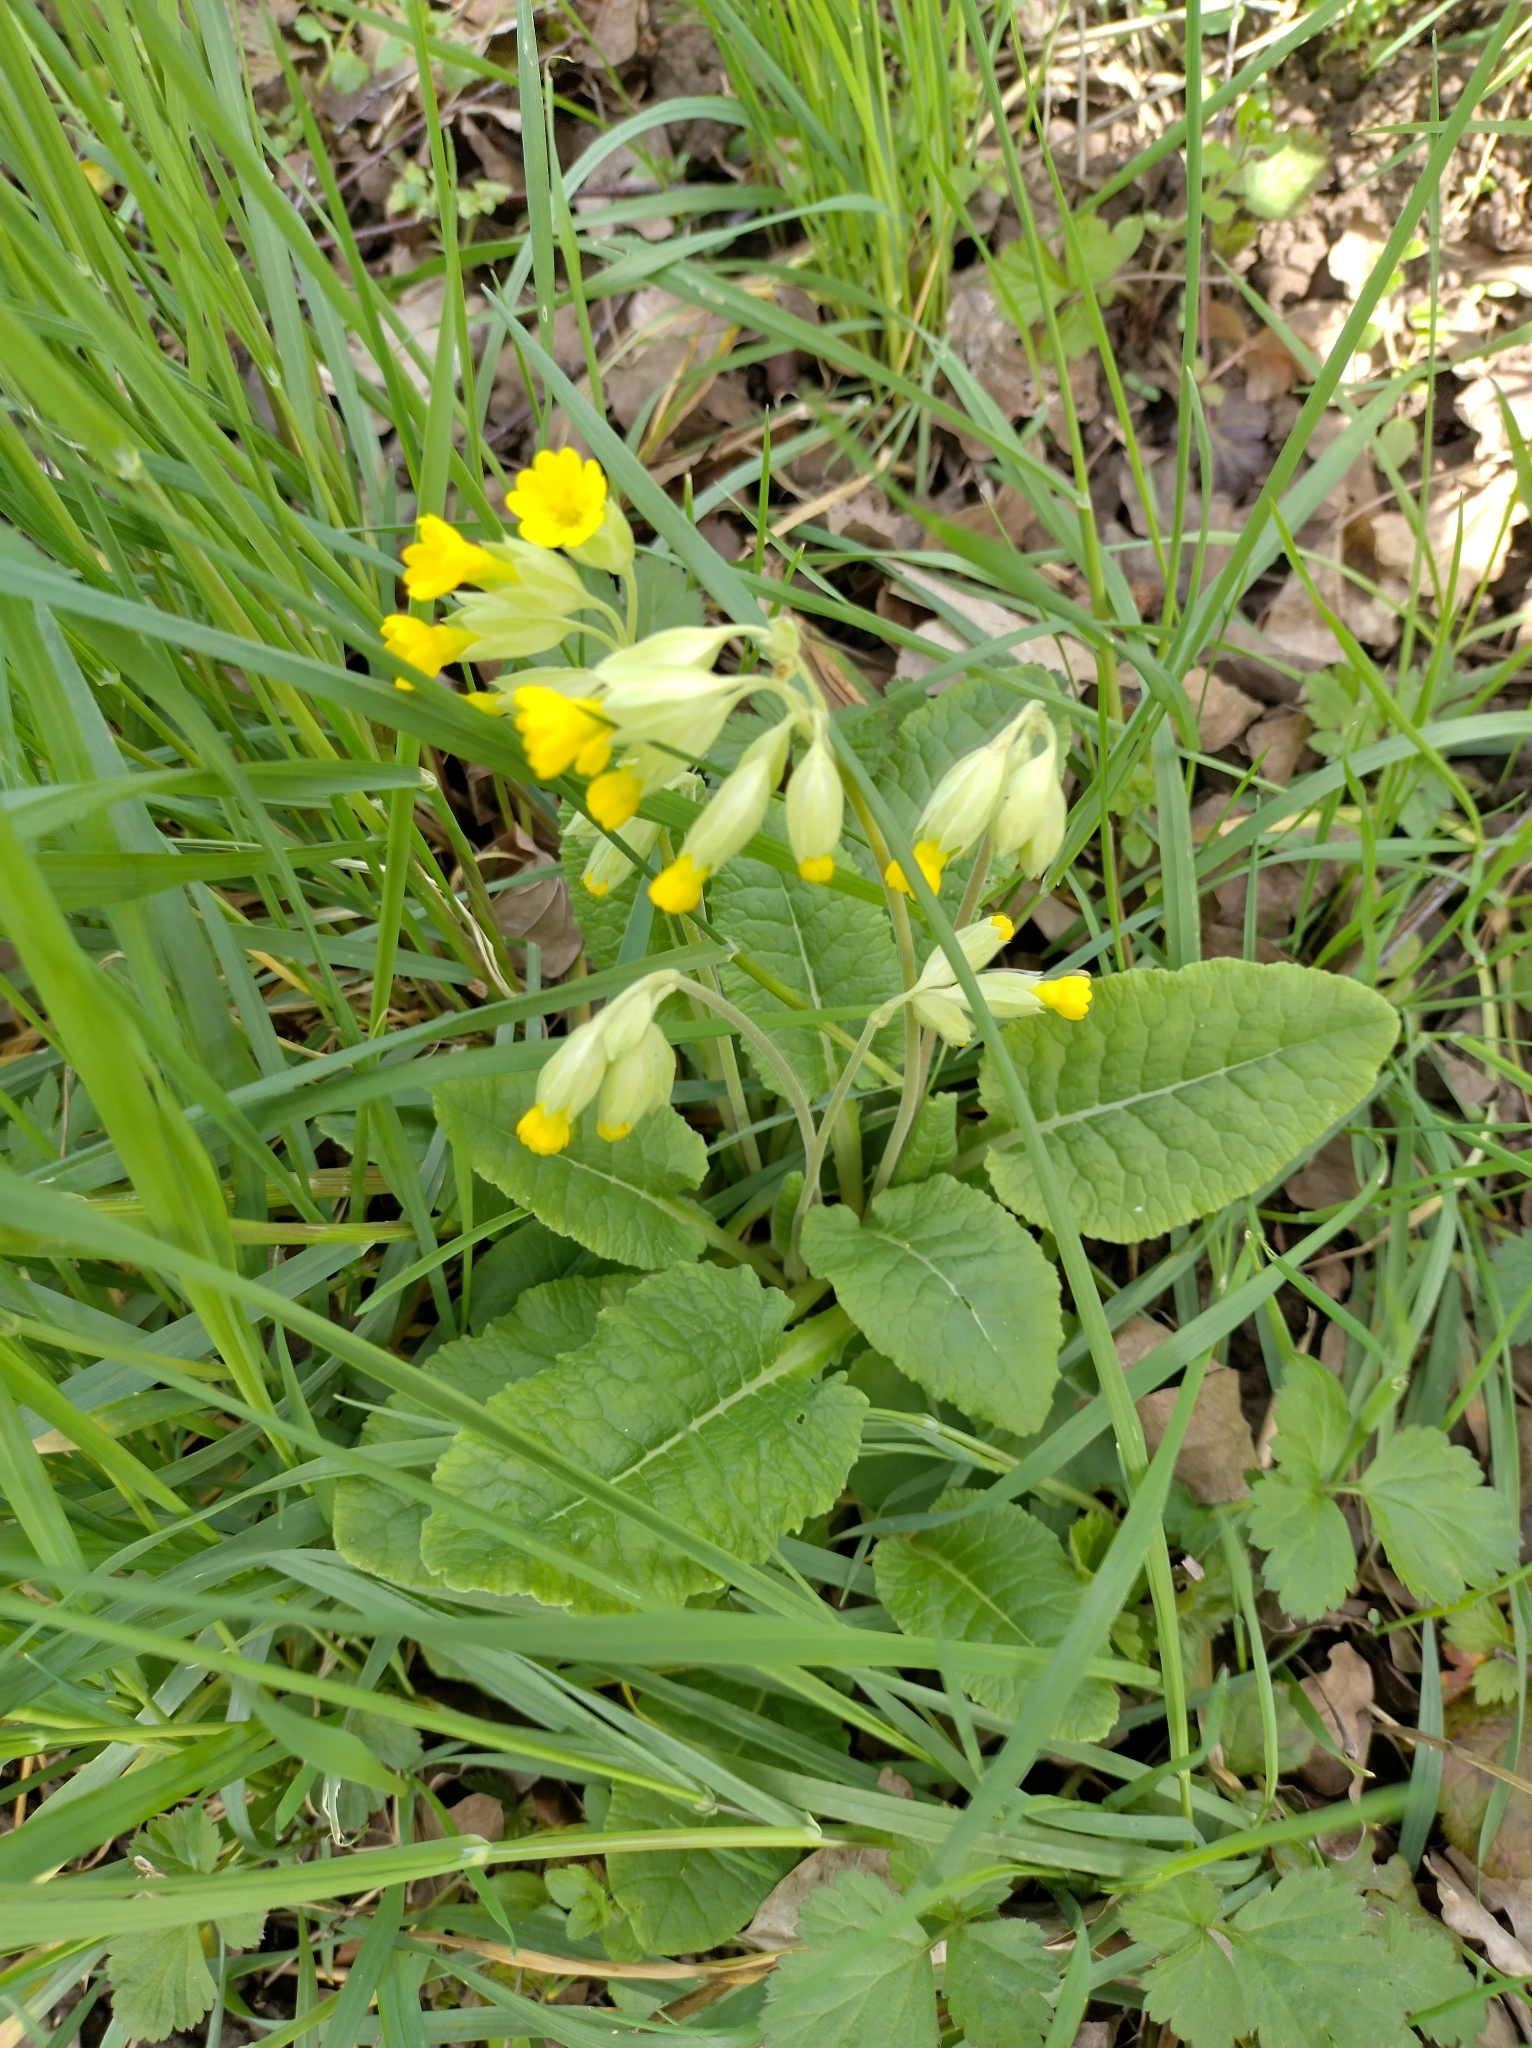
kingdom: Plantae
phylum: Tracheophyta
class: Magnoliopsida
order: Ericales
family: Primulaceae
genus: Primula
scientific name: Primula veris
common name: Cowslip
